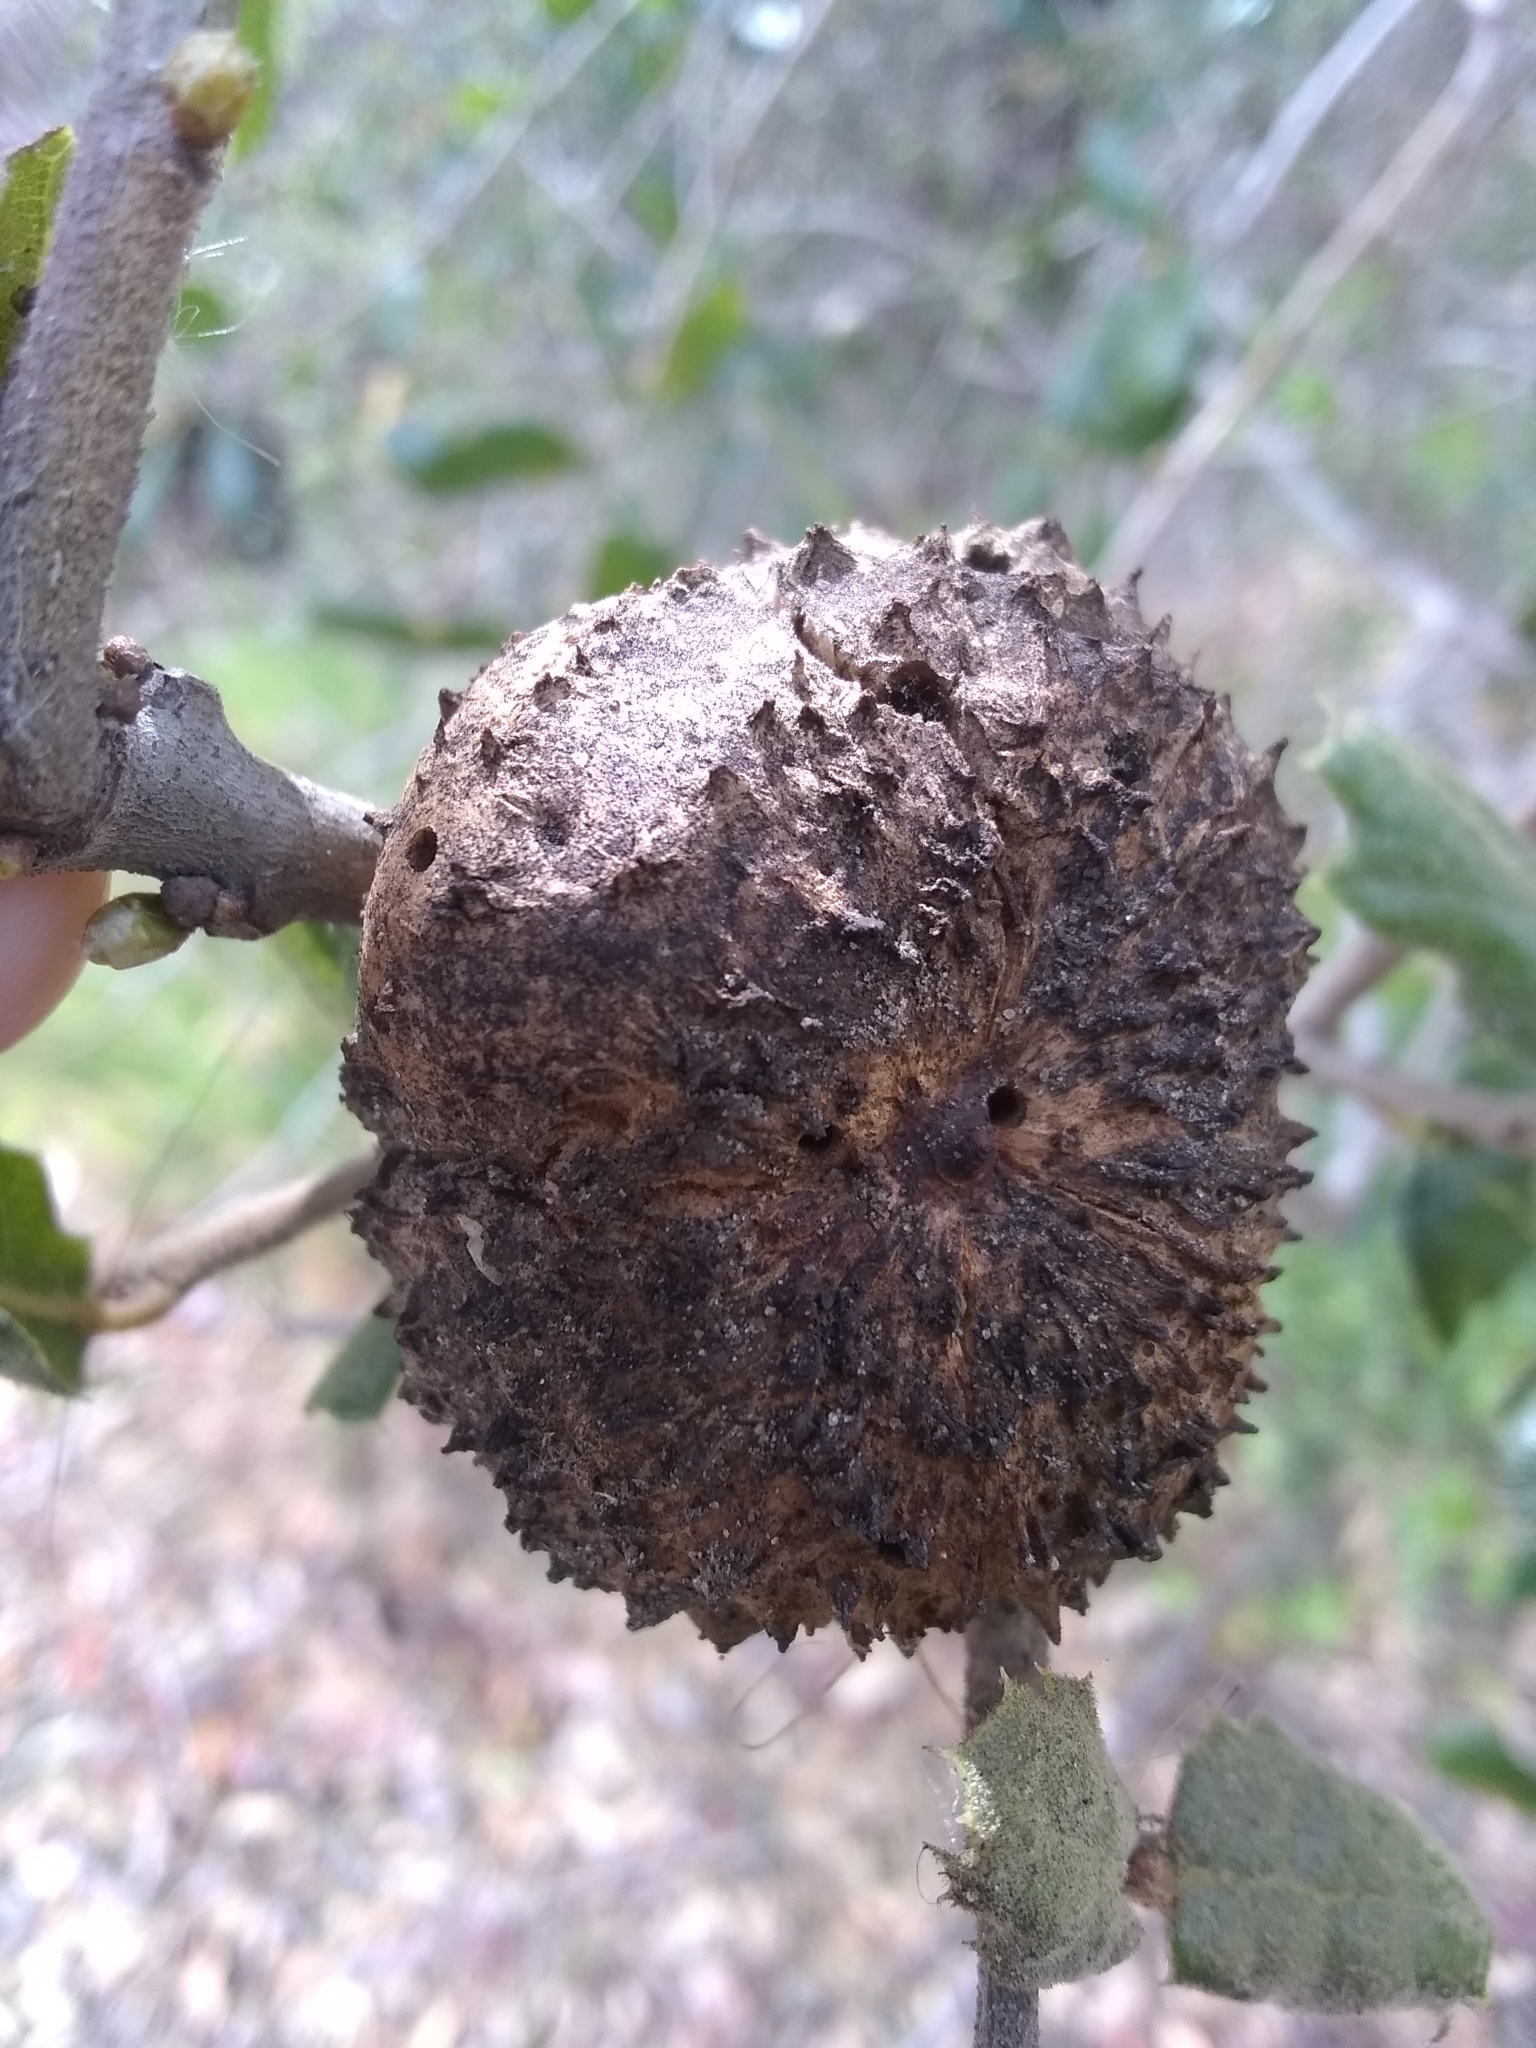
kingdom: Animalia
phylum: Arthropoda
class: Insecta
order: Hymenoptera
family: Cynipidae
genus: Amphibolips
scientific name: Amphibolips quercuspomiformis
